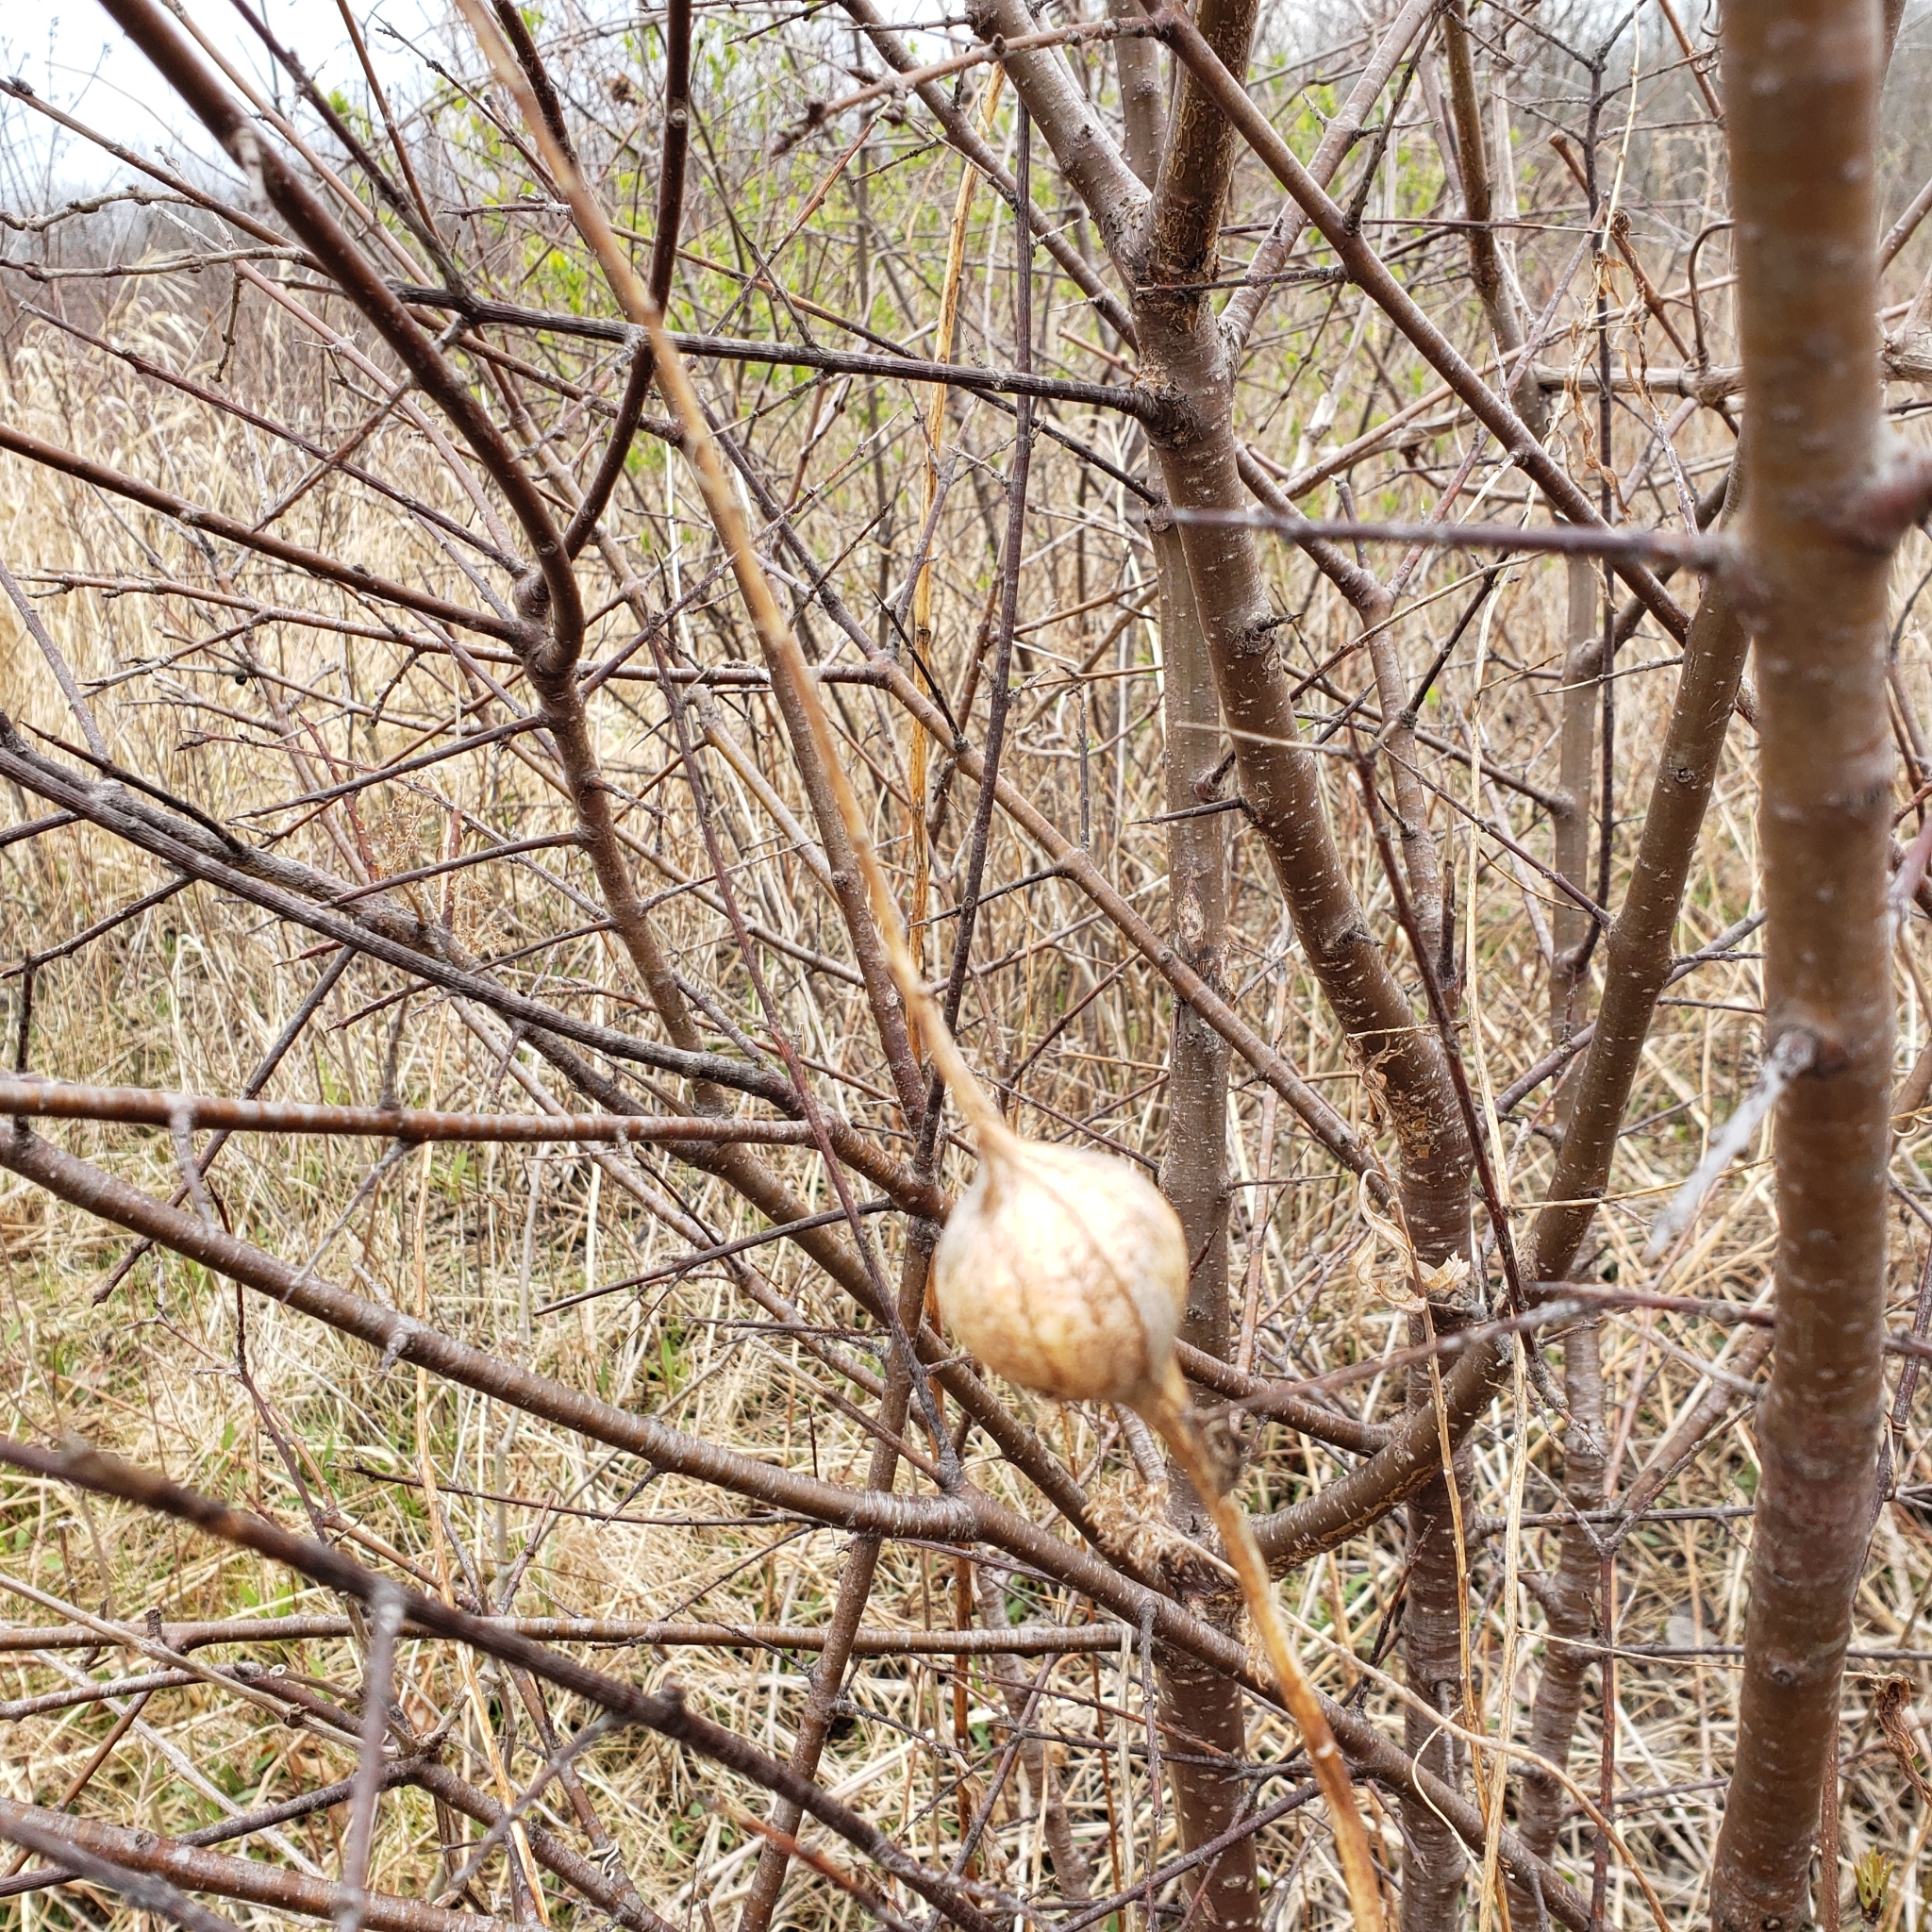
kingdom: Animalia
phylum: Arthropoda
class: Insecta
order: Diptera
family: Tephritidae
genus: Eurosta
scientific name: Eurosta solidaginis
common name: Goldenrod gall fly
